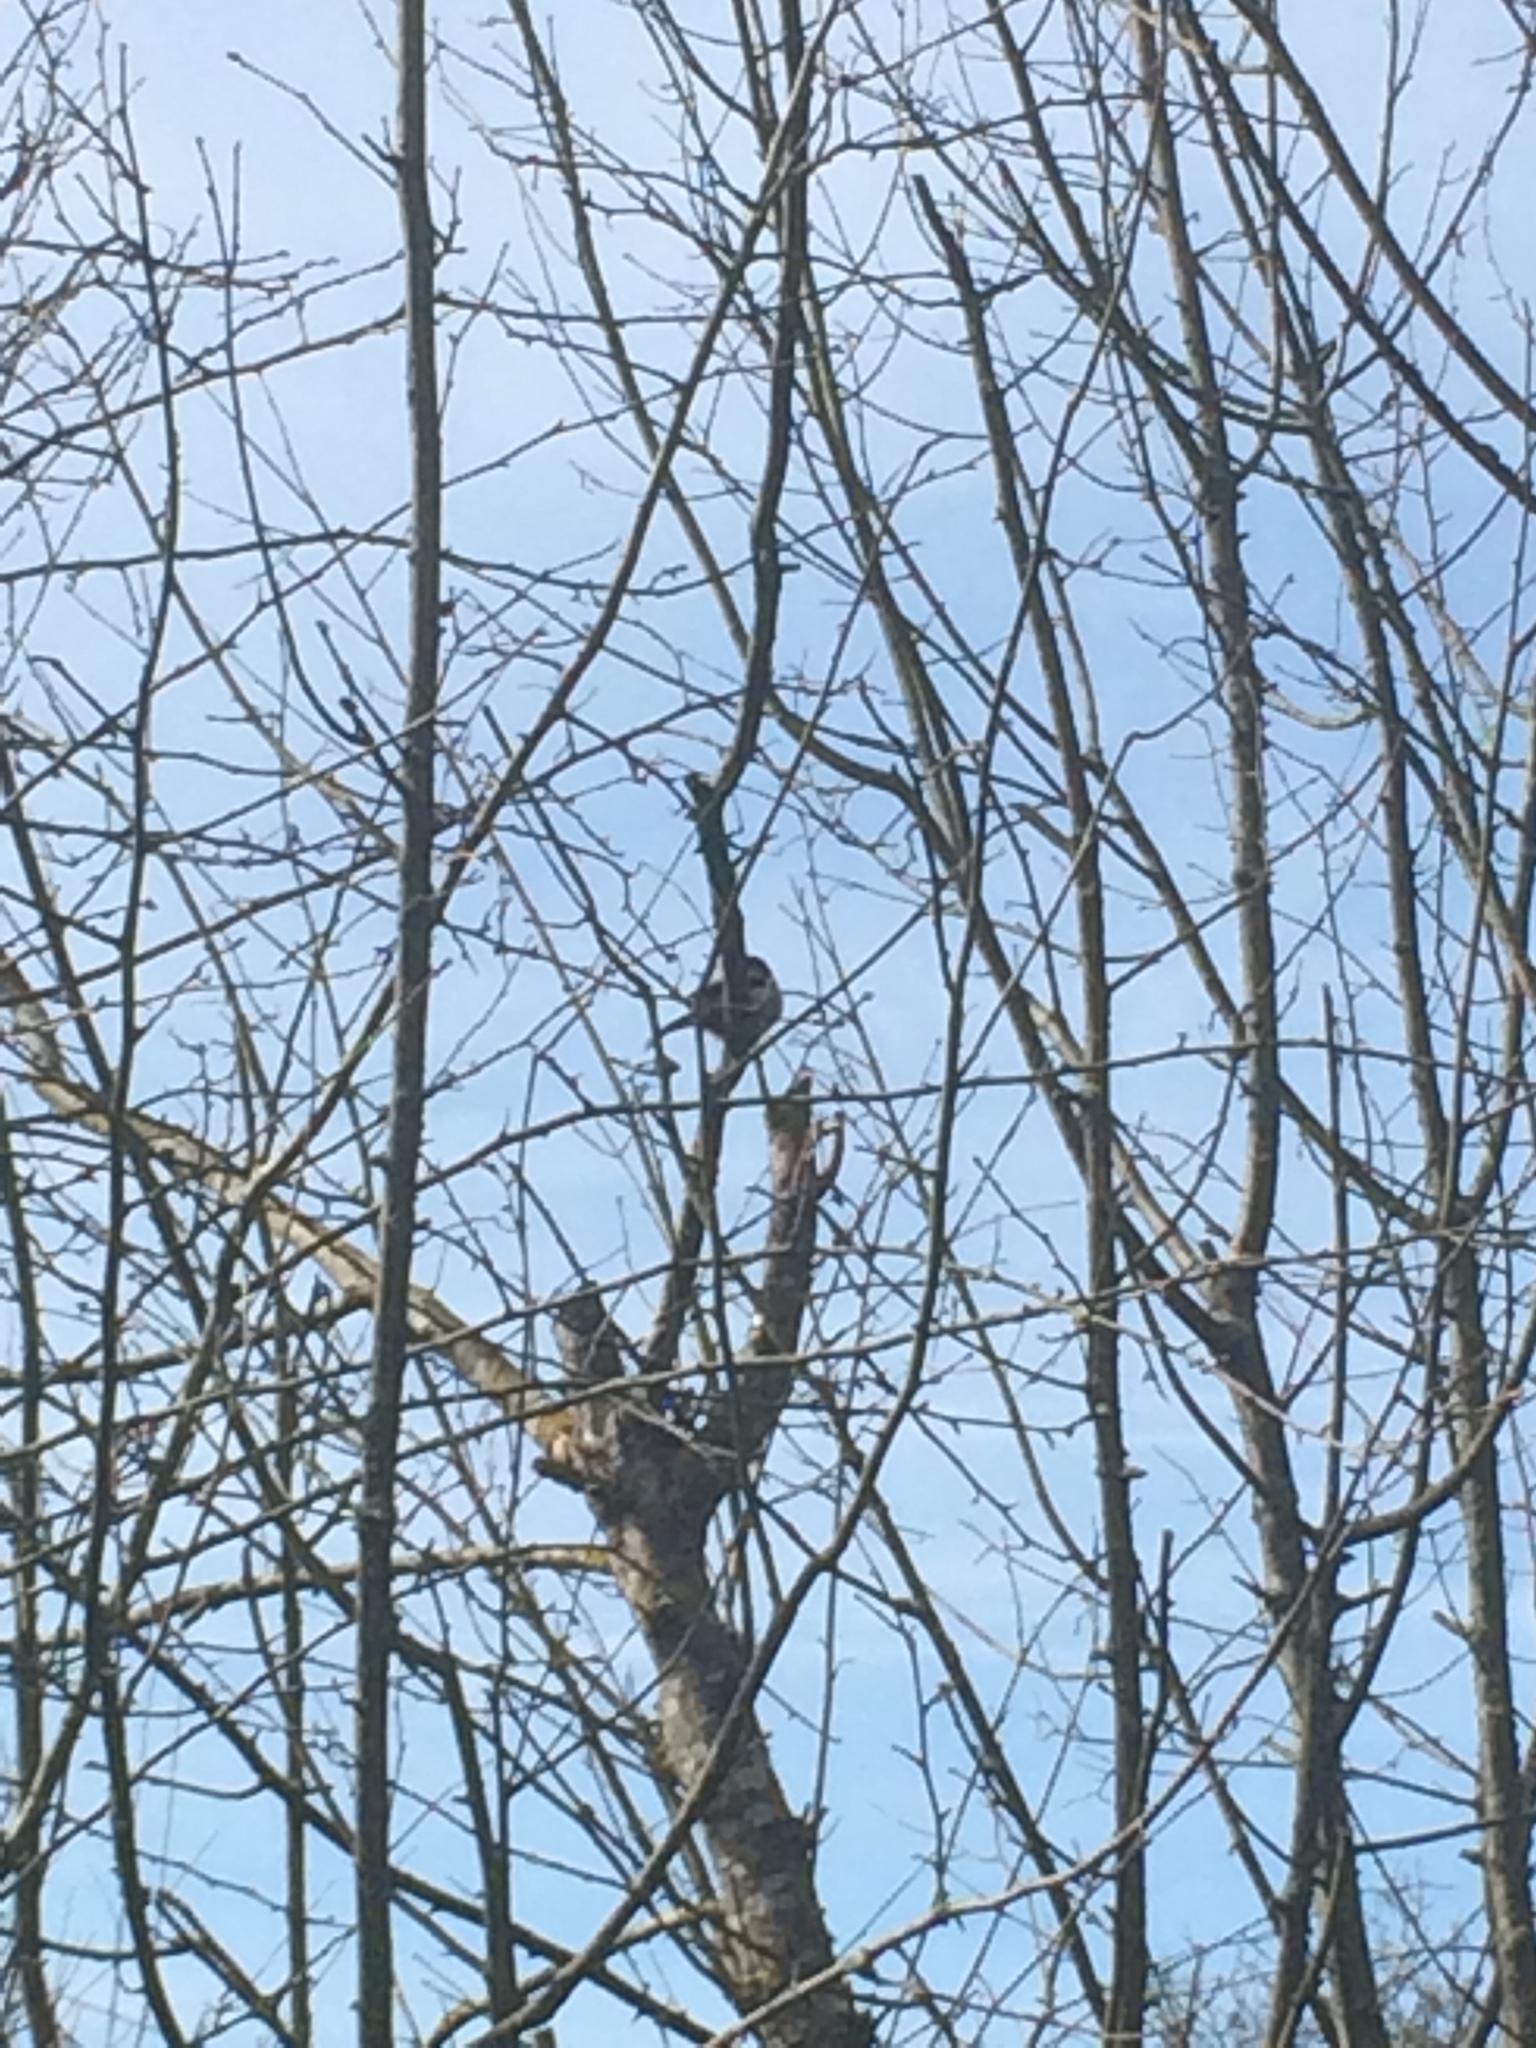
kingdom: Animalia
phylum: Chordata
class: Aves
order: Passeriformes
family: Aegithalidae
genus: Aegithalos
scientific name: Aegithalos caudatus
